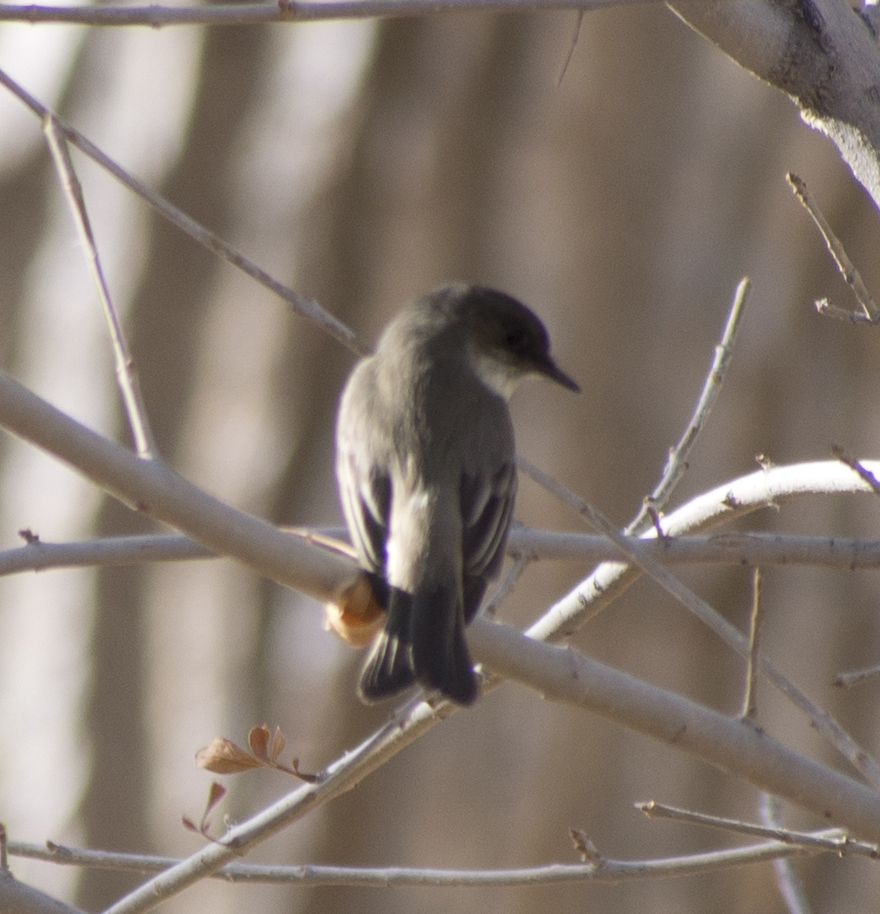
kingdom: Animalia
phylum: Chordata
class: Aves
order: Passeriformes
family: Tyrannidae
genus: Sayornis
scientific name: Sayornis phoebe
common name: Eastern phoebe
